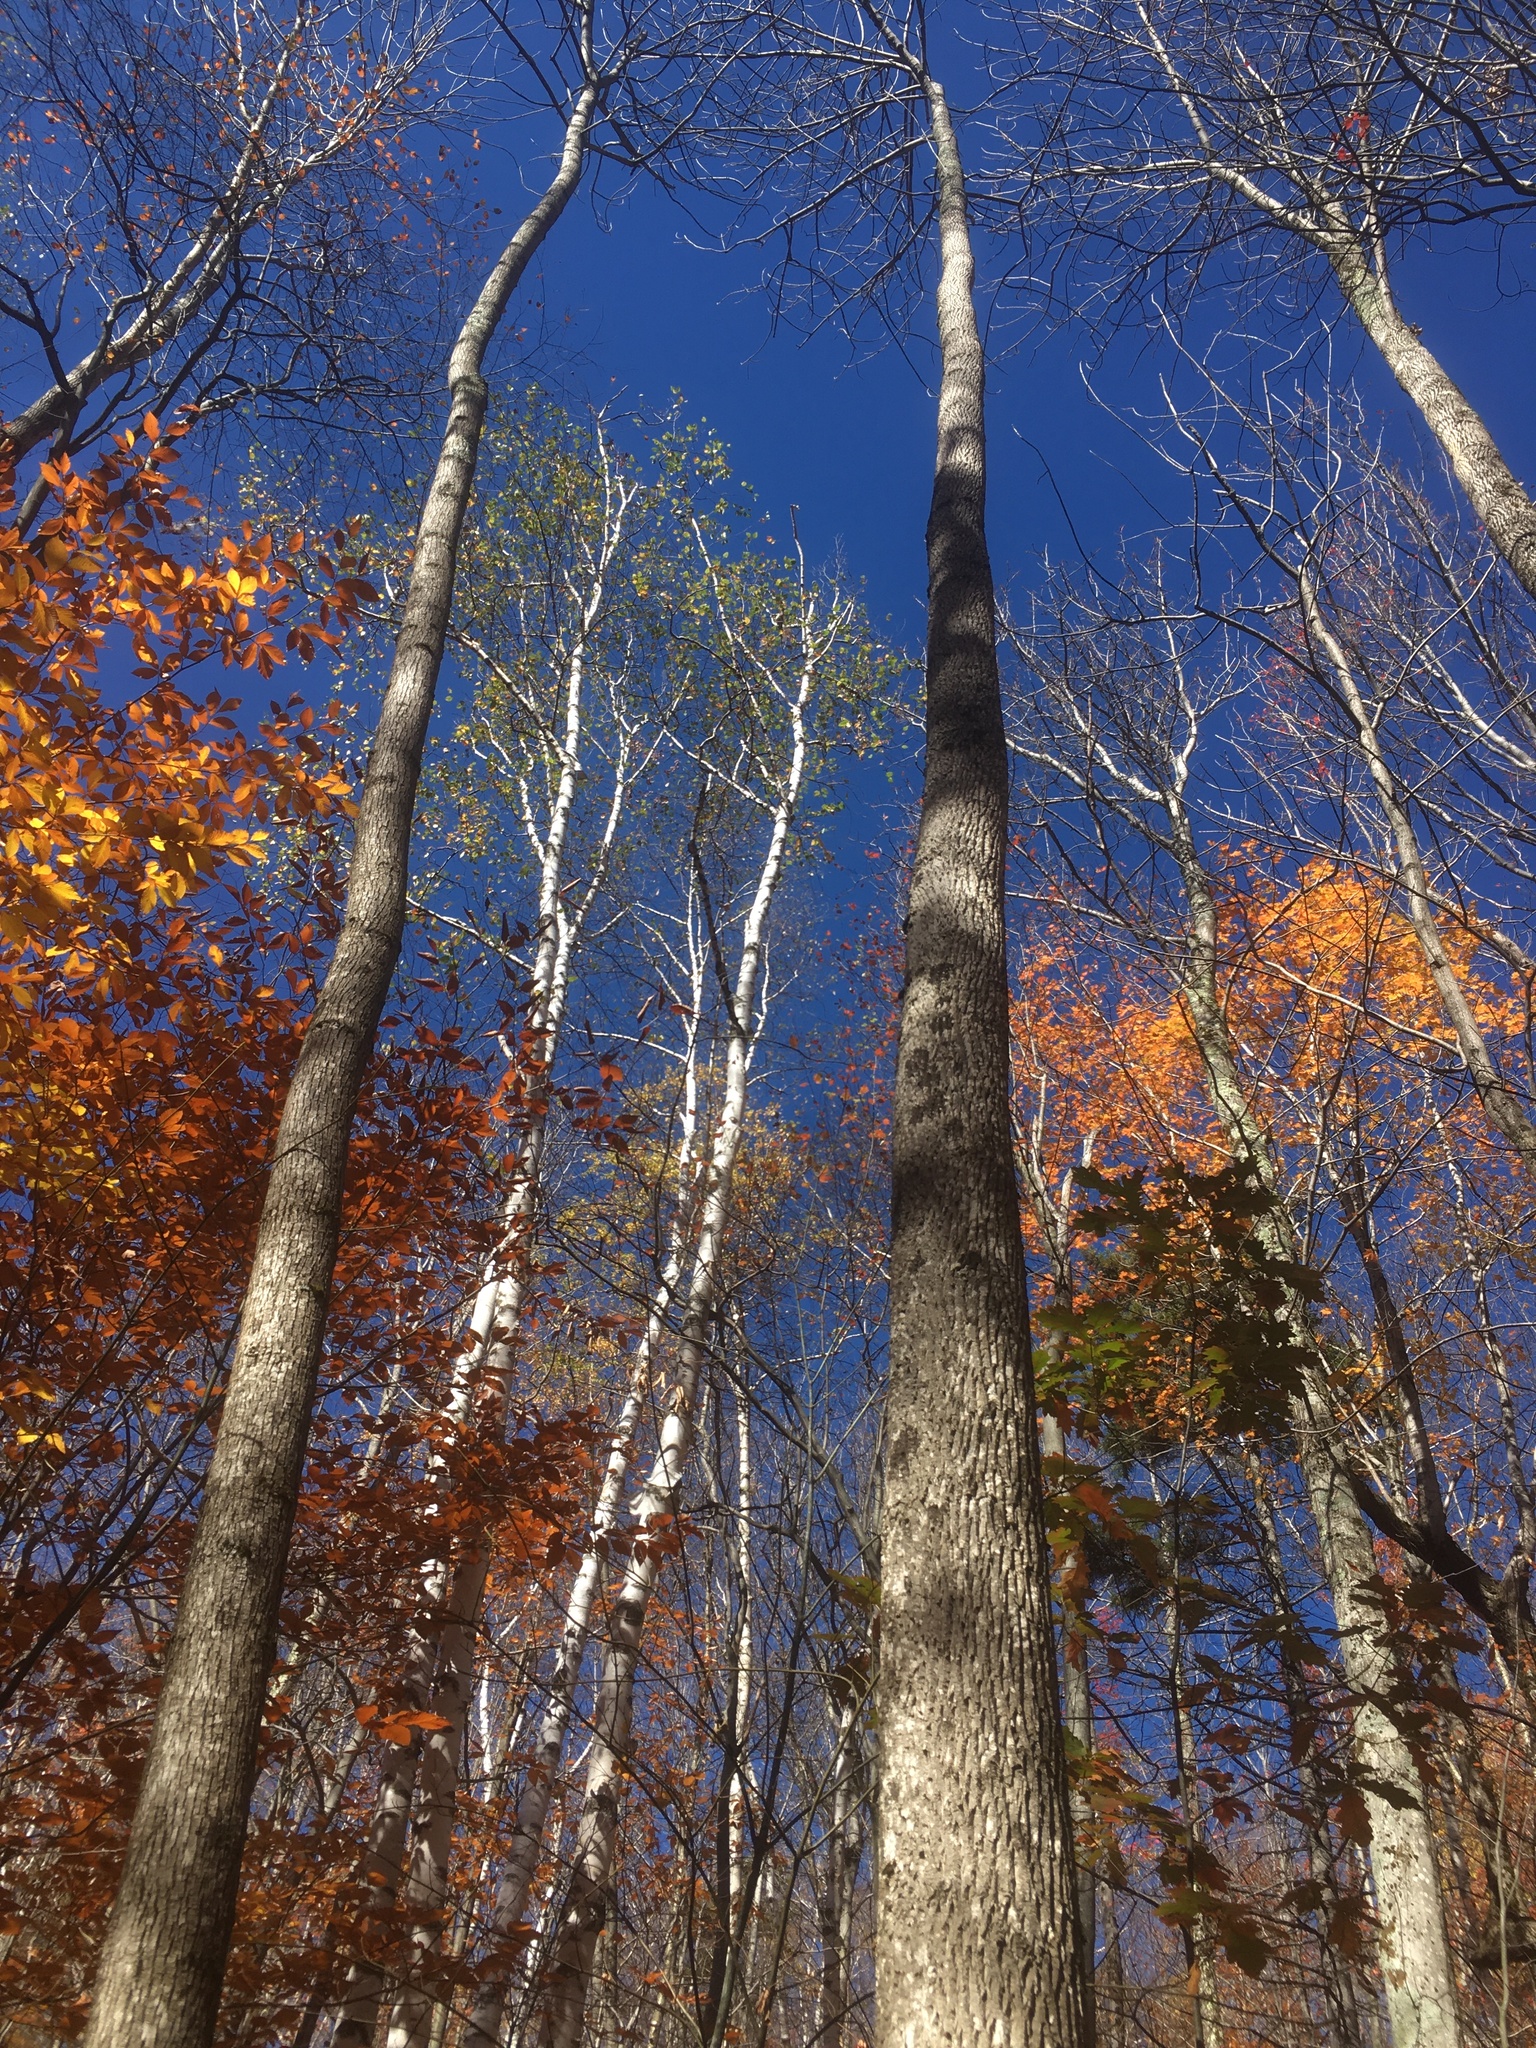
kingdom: Plantae
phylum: Tracheophyta
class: Magnoliopsida
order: Lamiales
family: Oleaceae
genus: Fraxinus
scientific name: Fraxinus americana
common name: White ash
